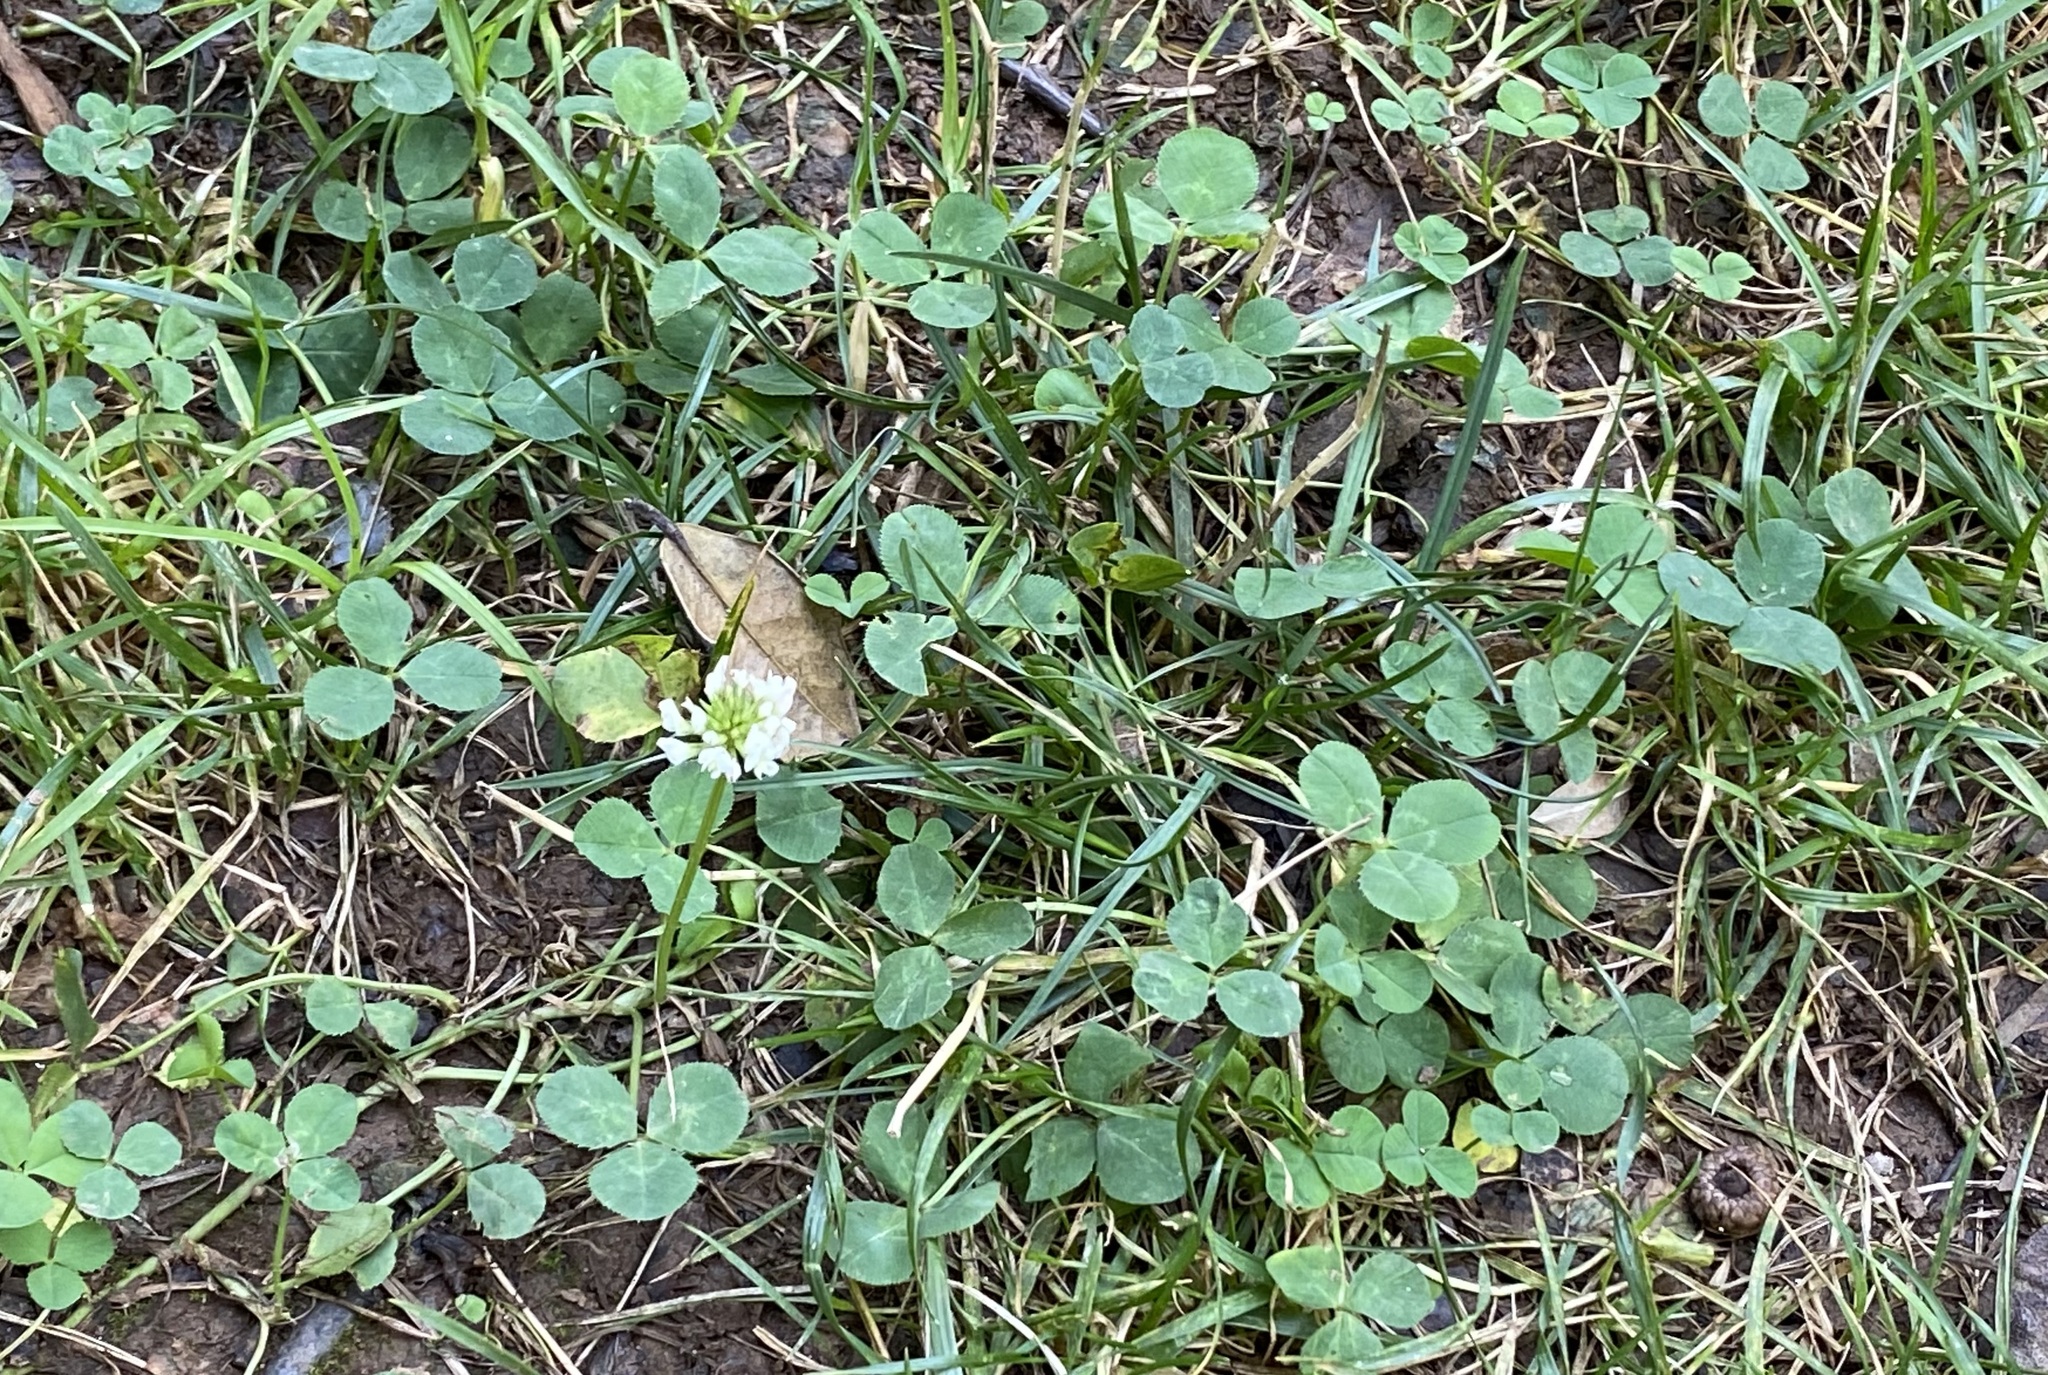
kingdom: Plantae
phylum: Tracheophyta
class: Magnoliopsida
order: Fabales
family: Fabaceae
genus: Trifolium
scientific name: Trifolium repens
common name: White clover
